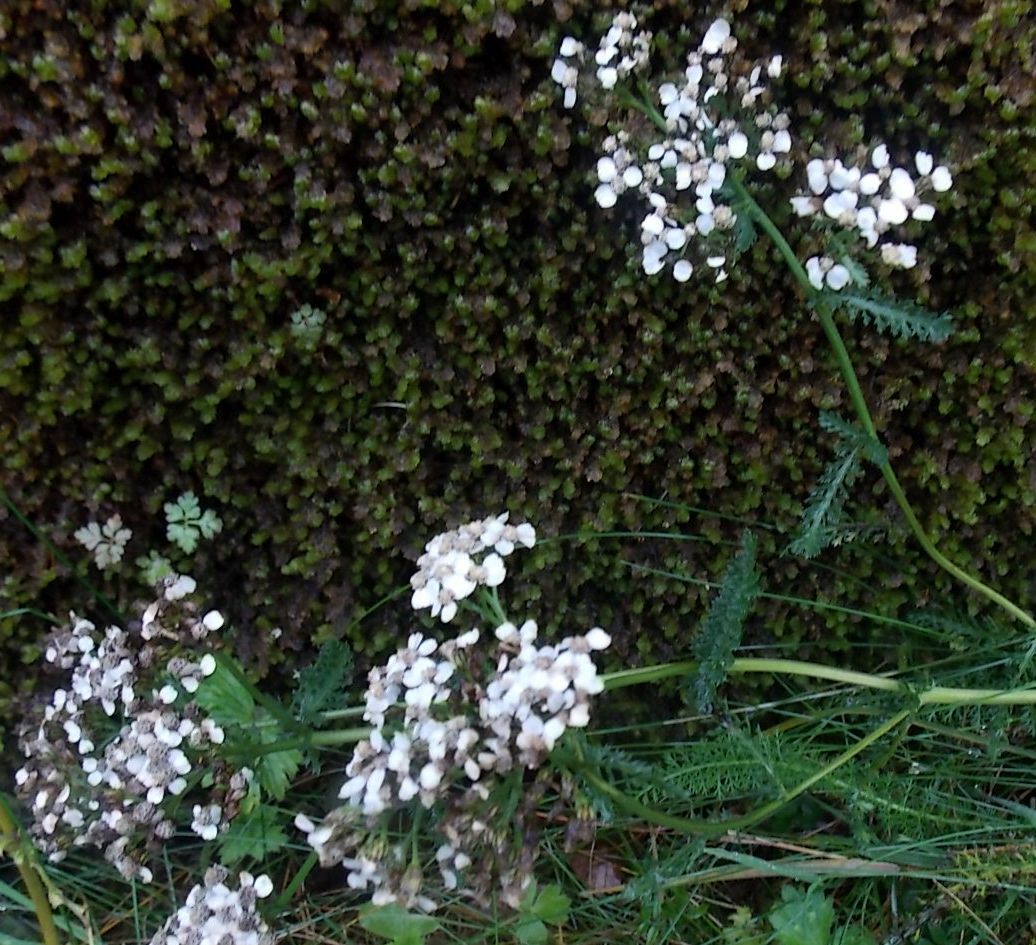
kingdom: Plantae
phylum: Tracheophyta
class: Magnoliopsida
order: Asterales
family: Asteraceae
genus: Achillea
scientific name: Achillea millefolium
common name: Yarrow
